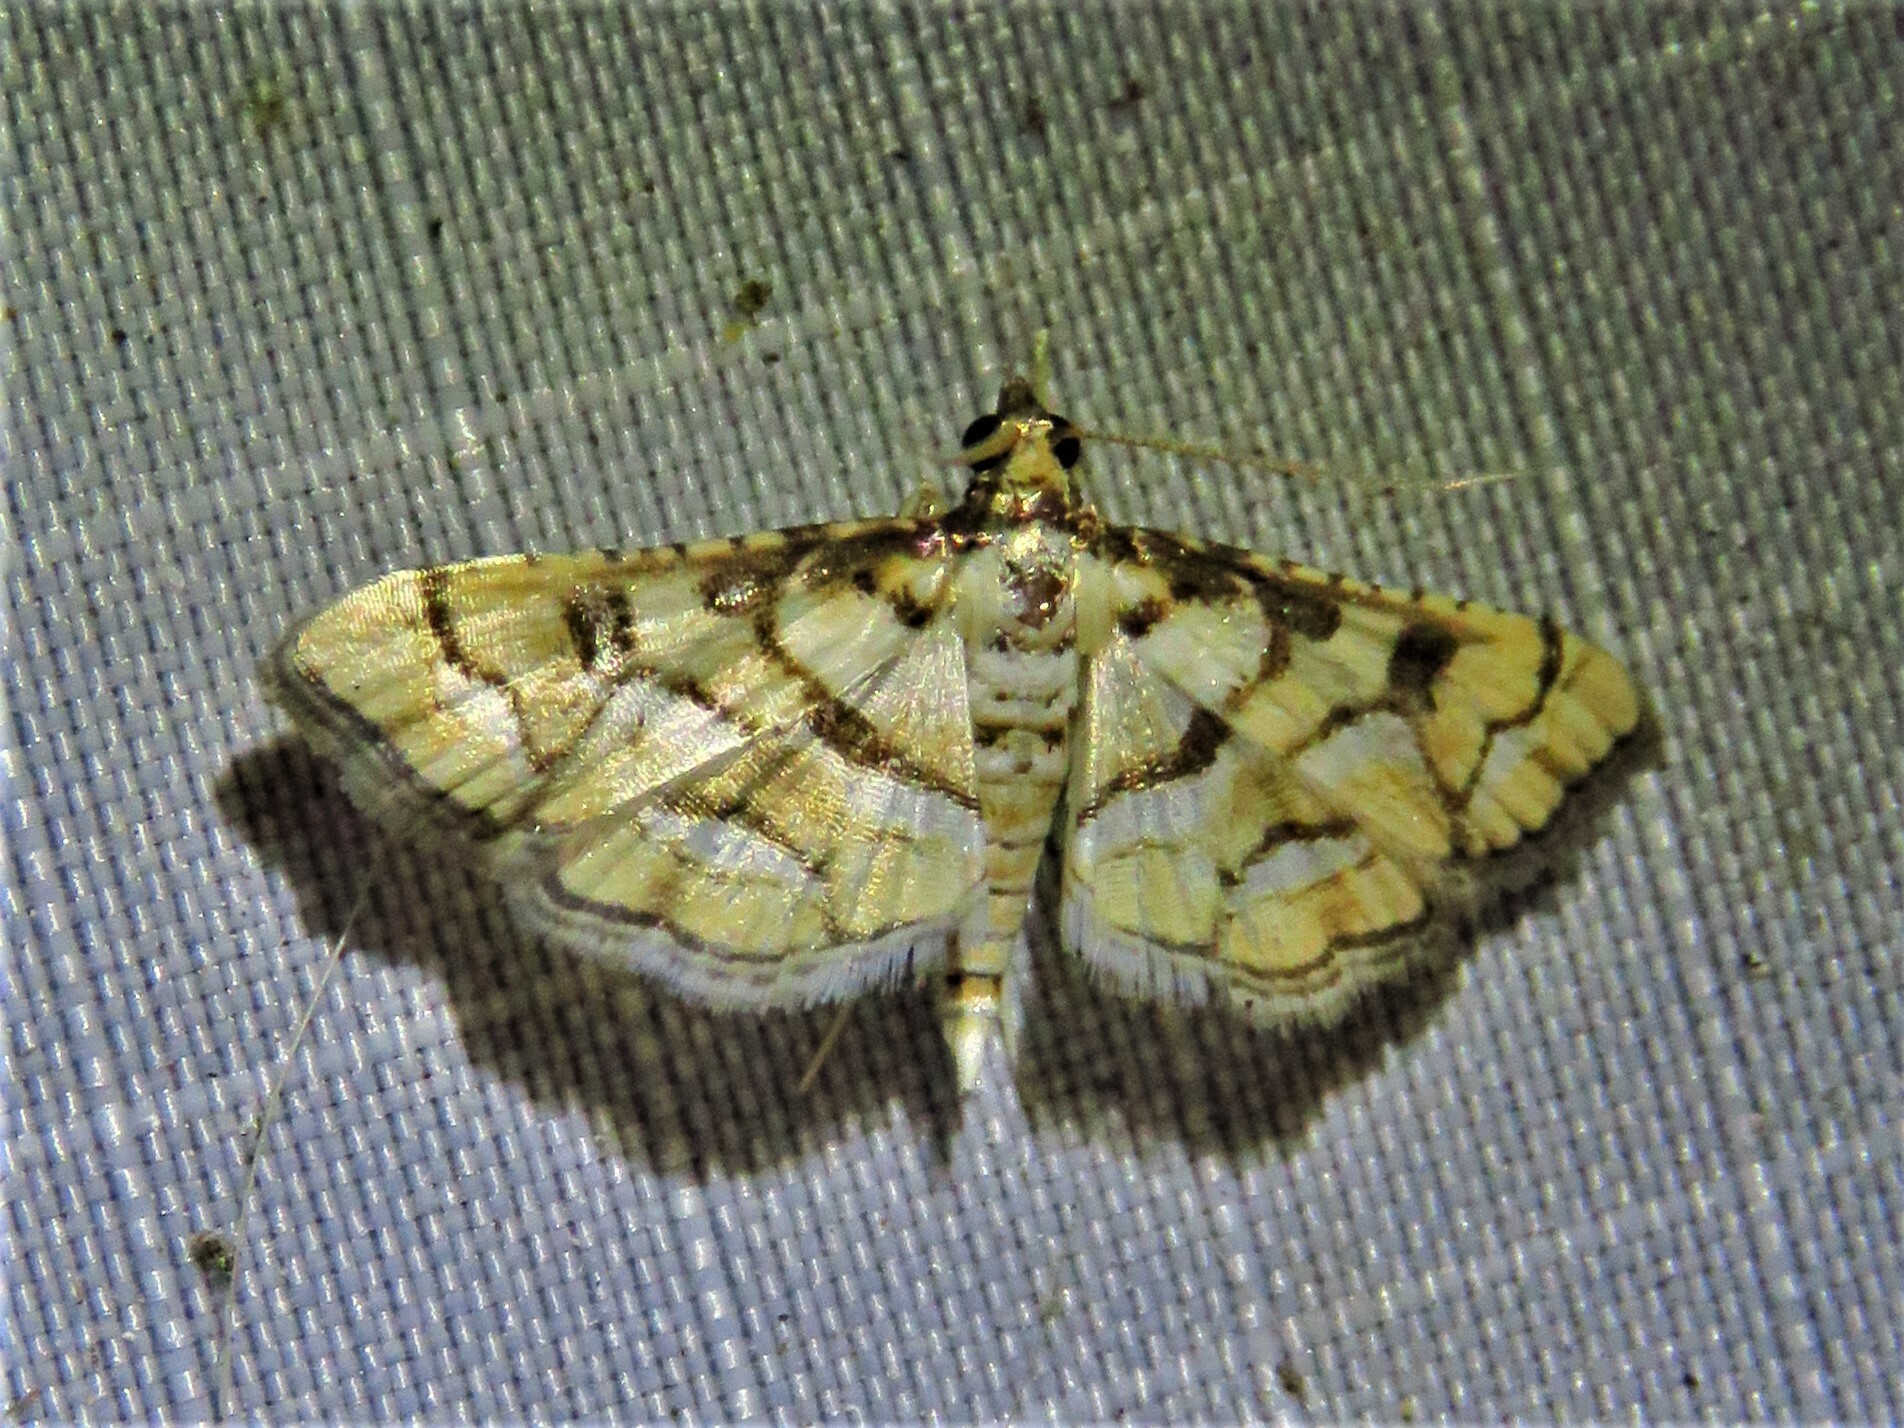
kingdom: Animalia
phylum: Arthropoda
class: Insecta
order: Lepidoptera
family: Crambidae
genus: Hileithia
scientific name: Hileithia magualis
